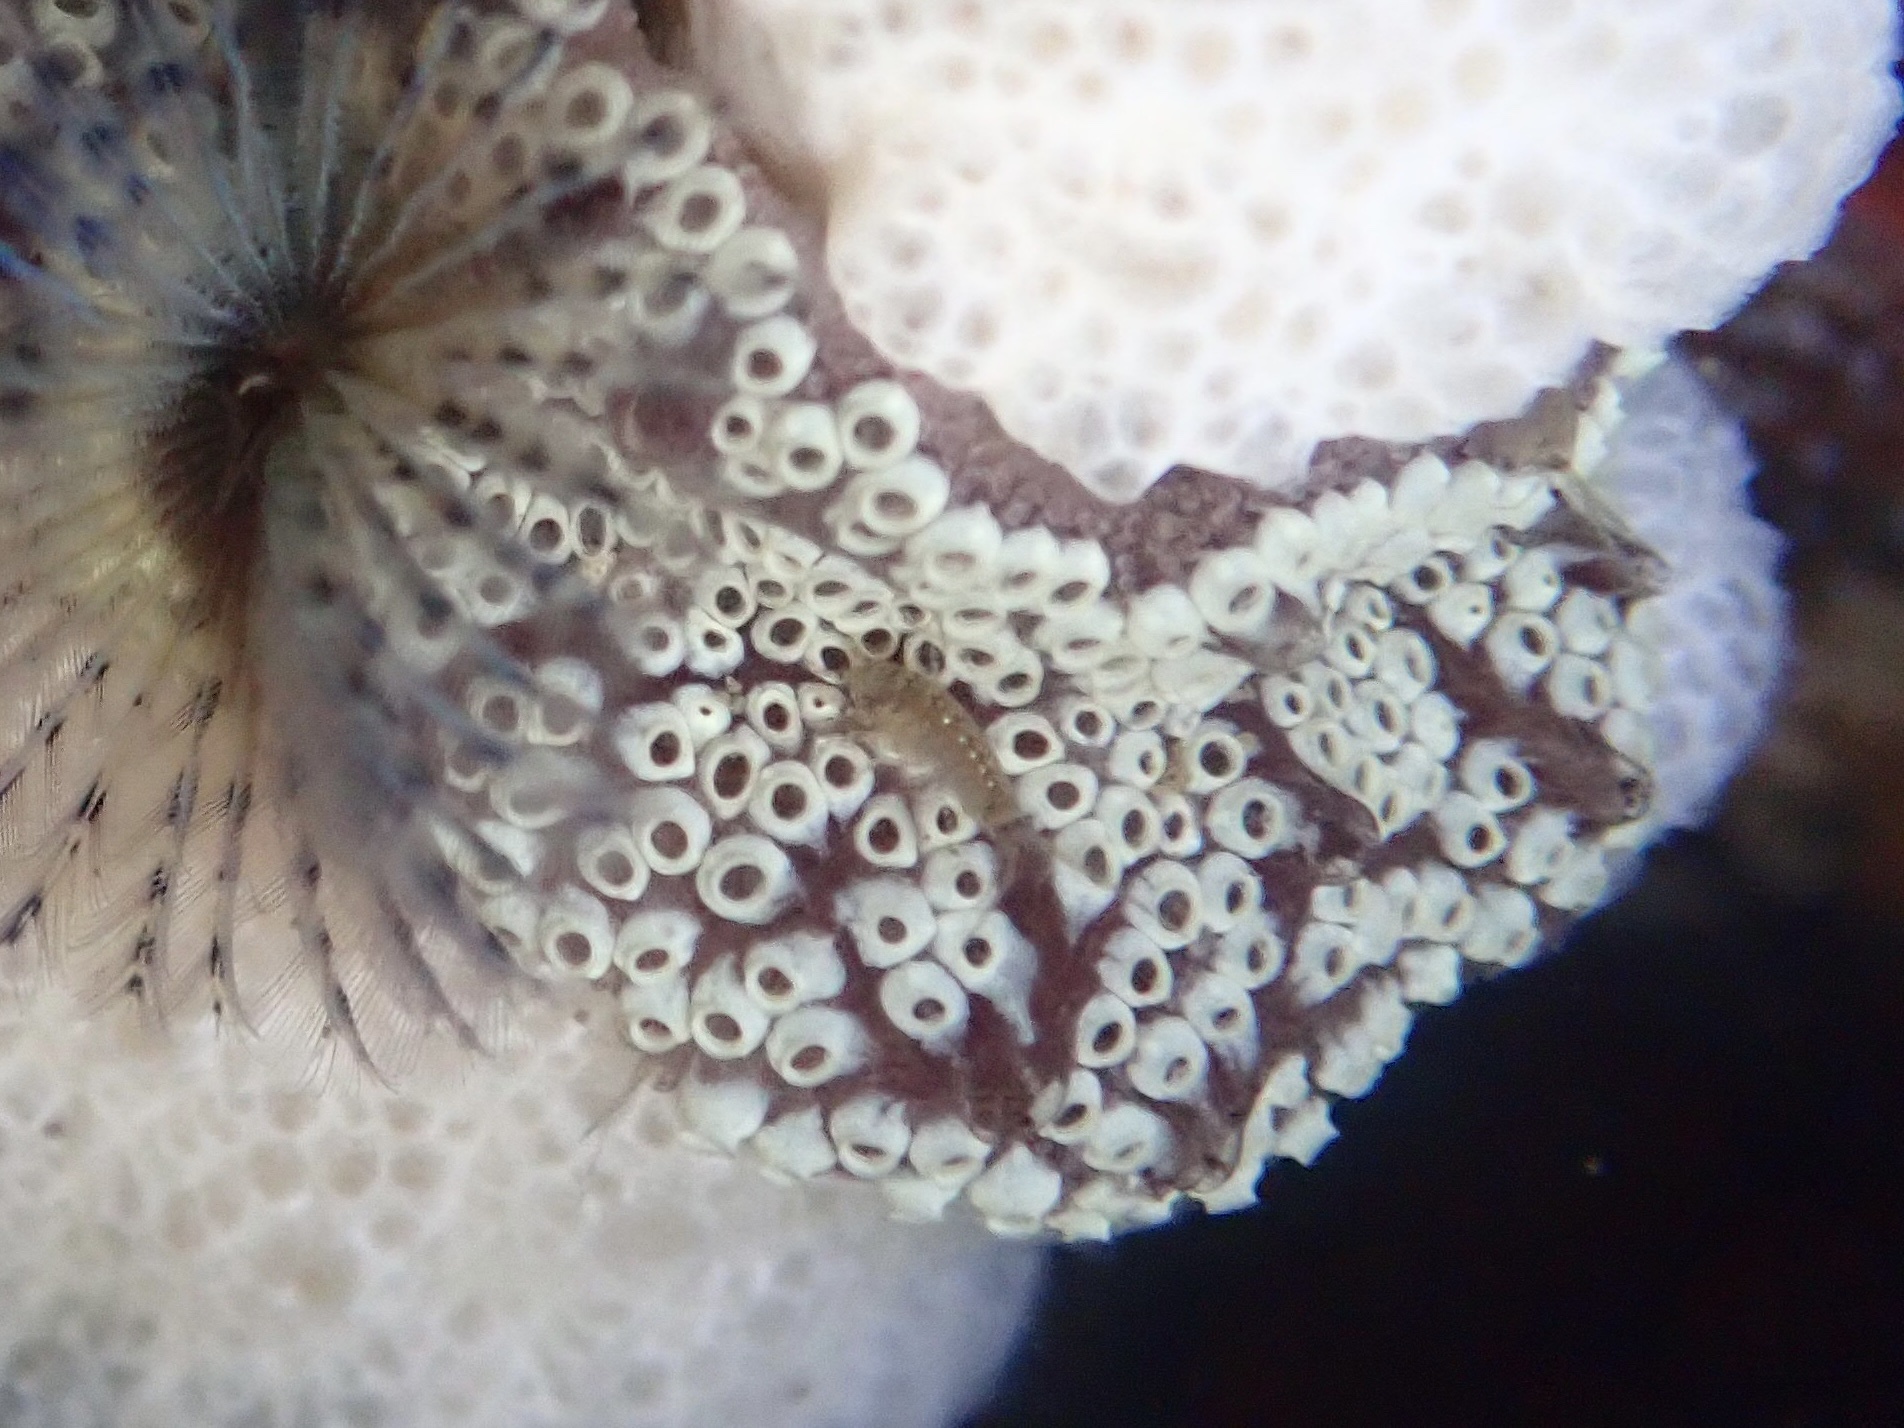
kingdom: Animalia
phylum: Chordata
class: Ascidiacea
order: Stolidobranchia
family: Styelidae
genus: Botrylloides
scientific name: Botrylloides diegensis
